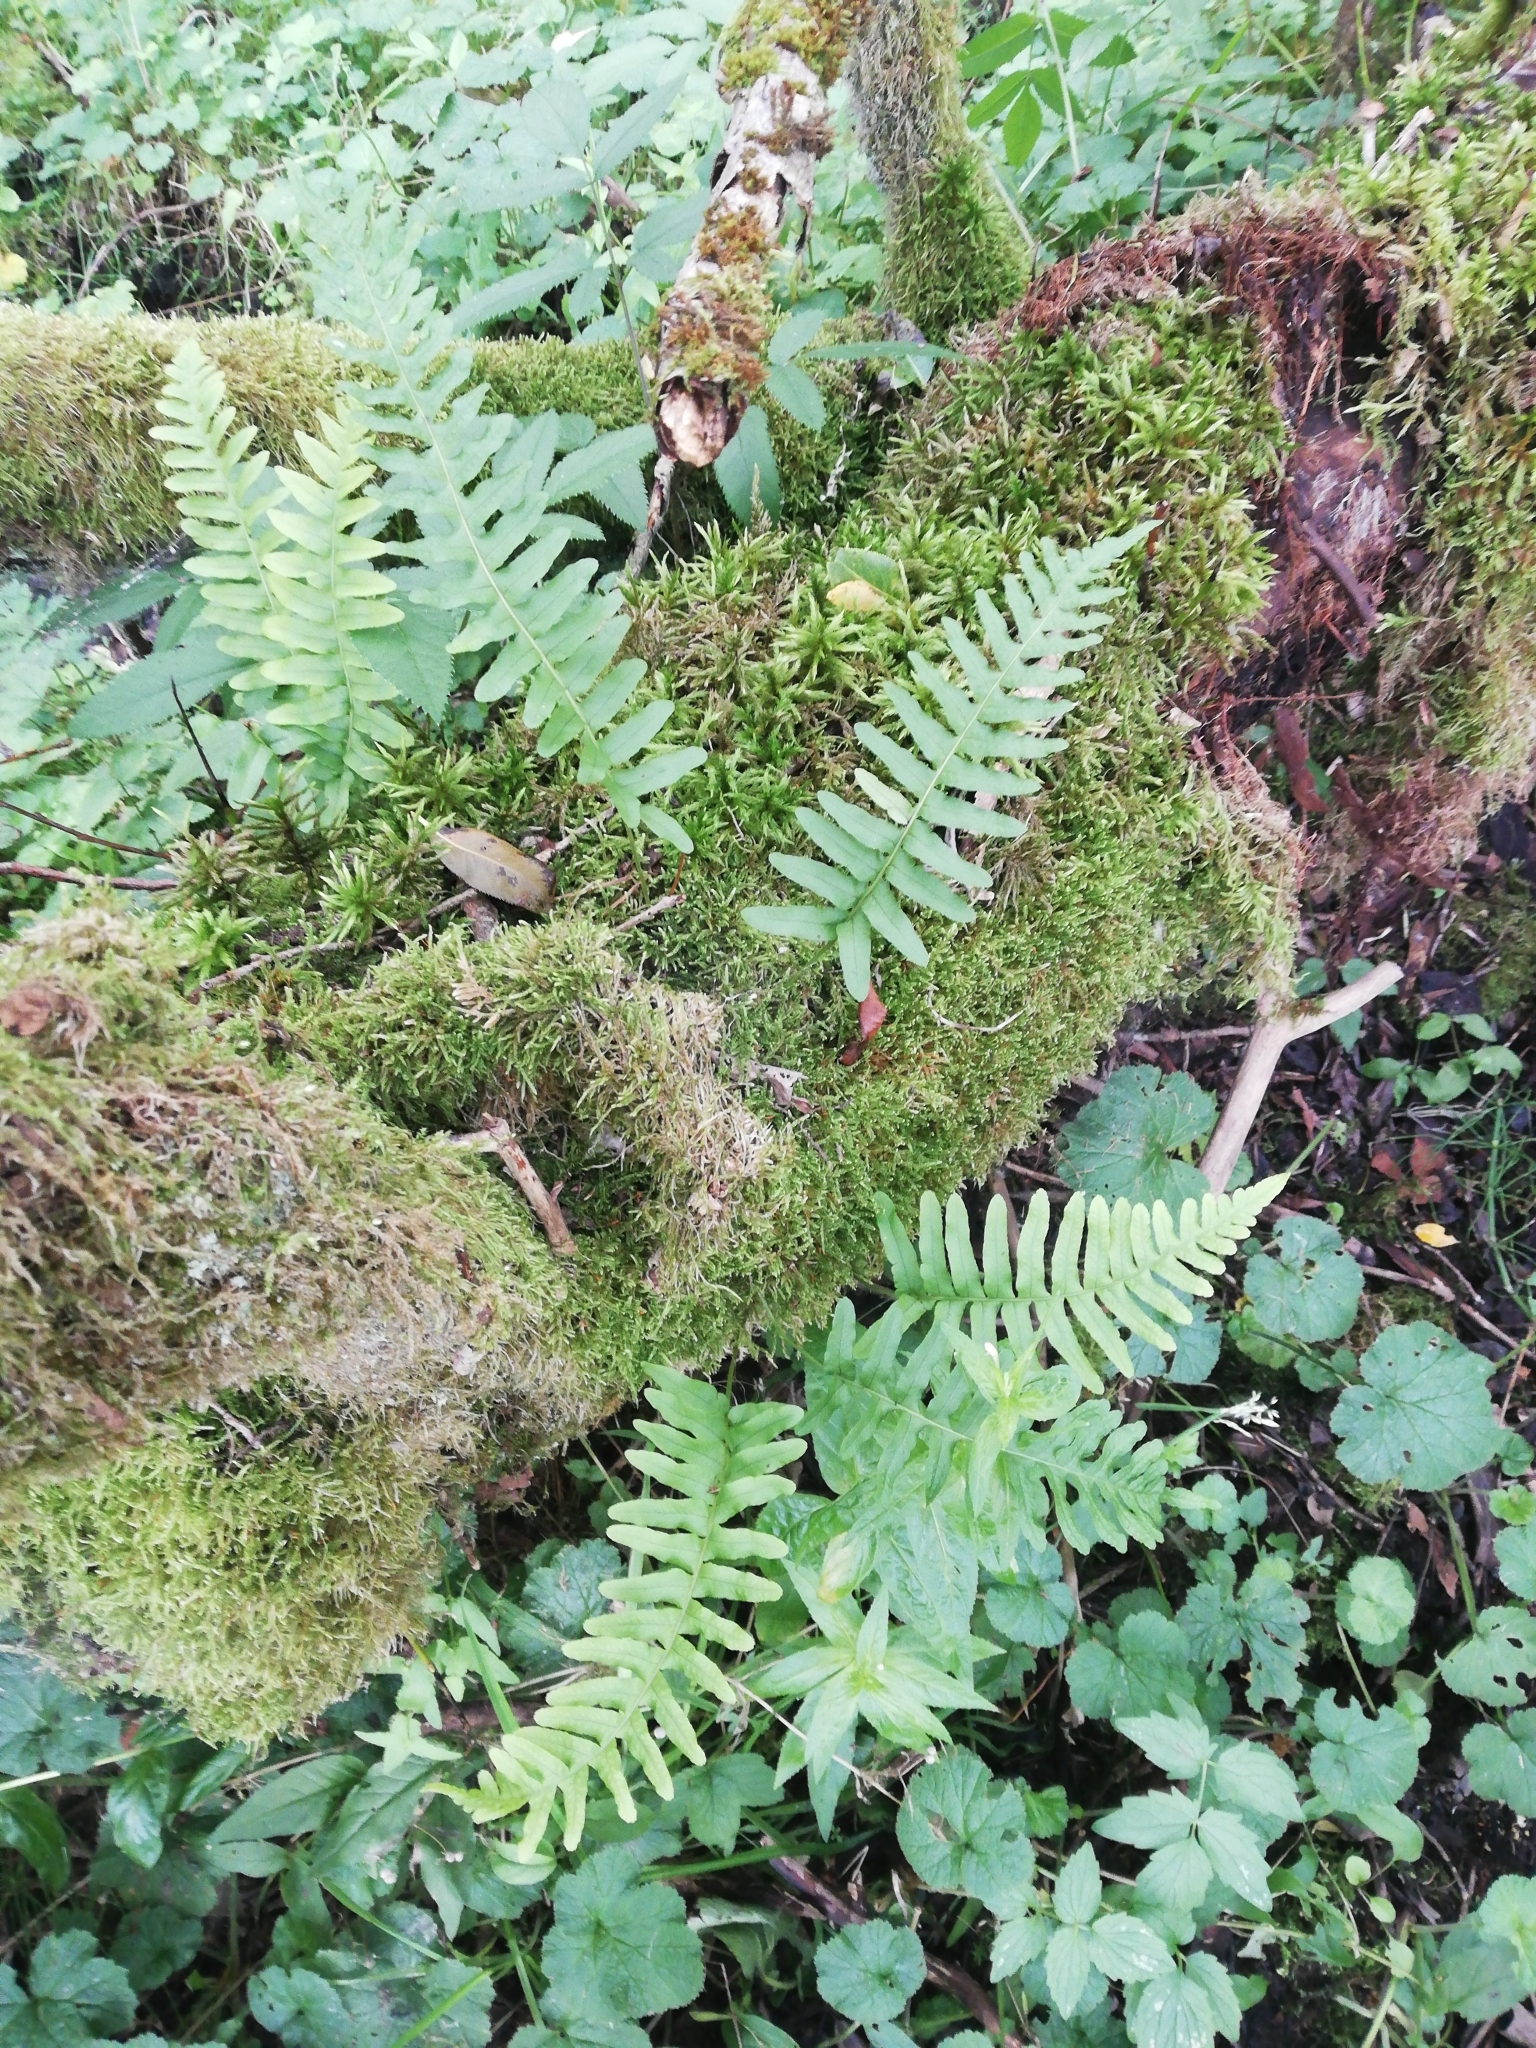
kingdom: Plantae
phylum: Tracheophyta
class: Polypodiopsida
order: Polypodiales
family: Polypodiaceae
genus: Polypodium
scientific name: Polypodium vulgare
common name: Common polypody
